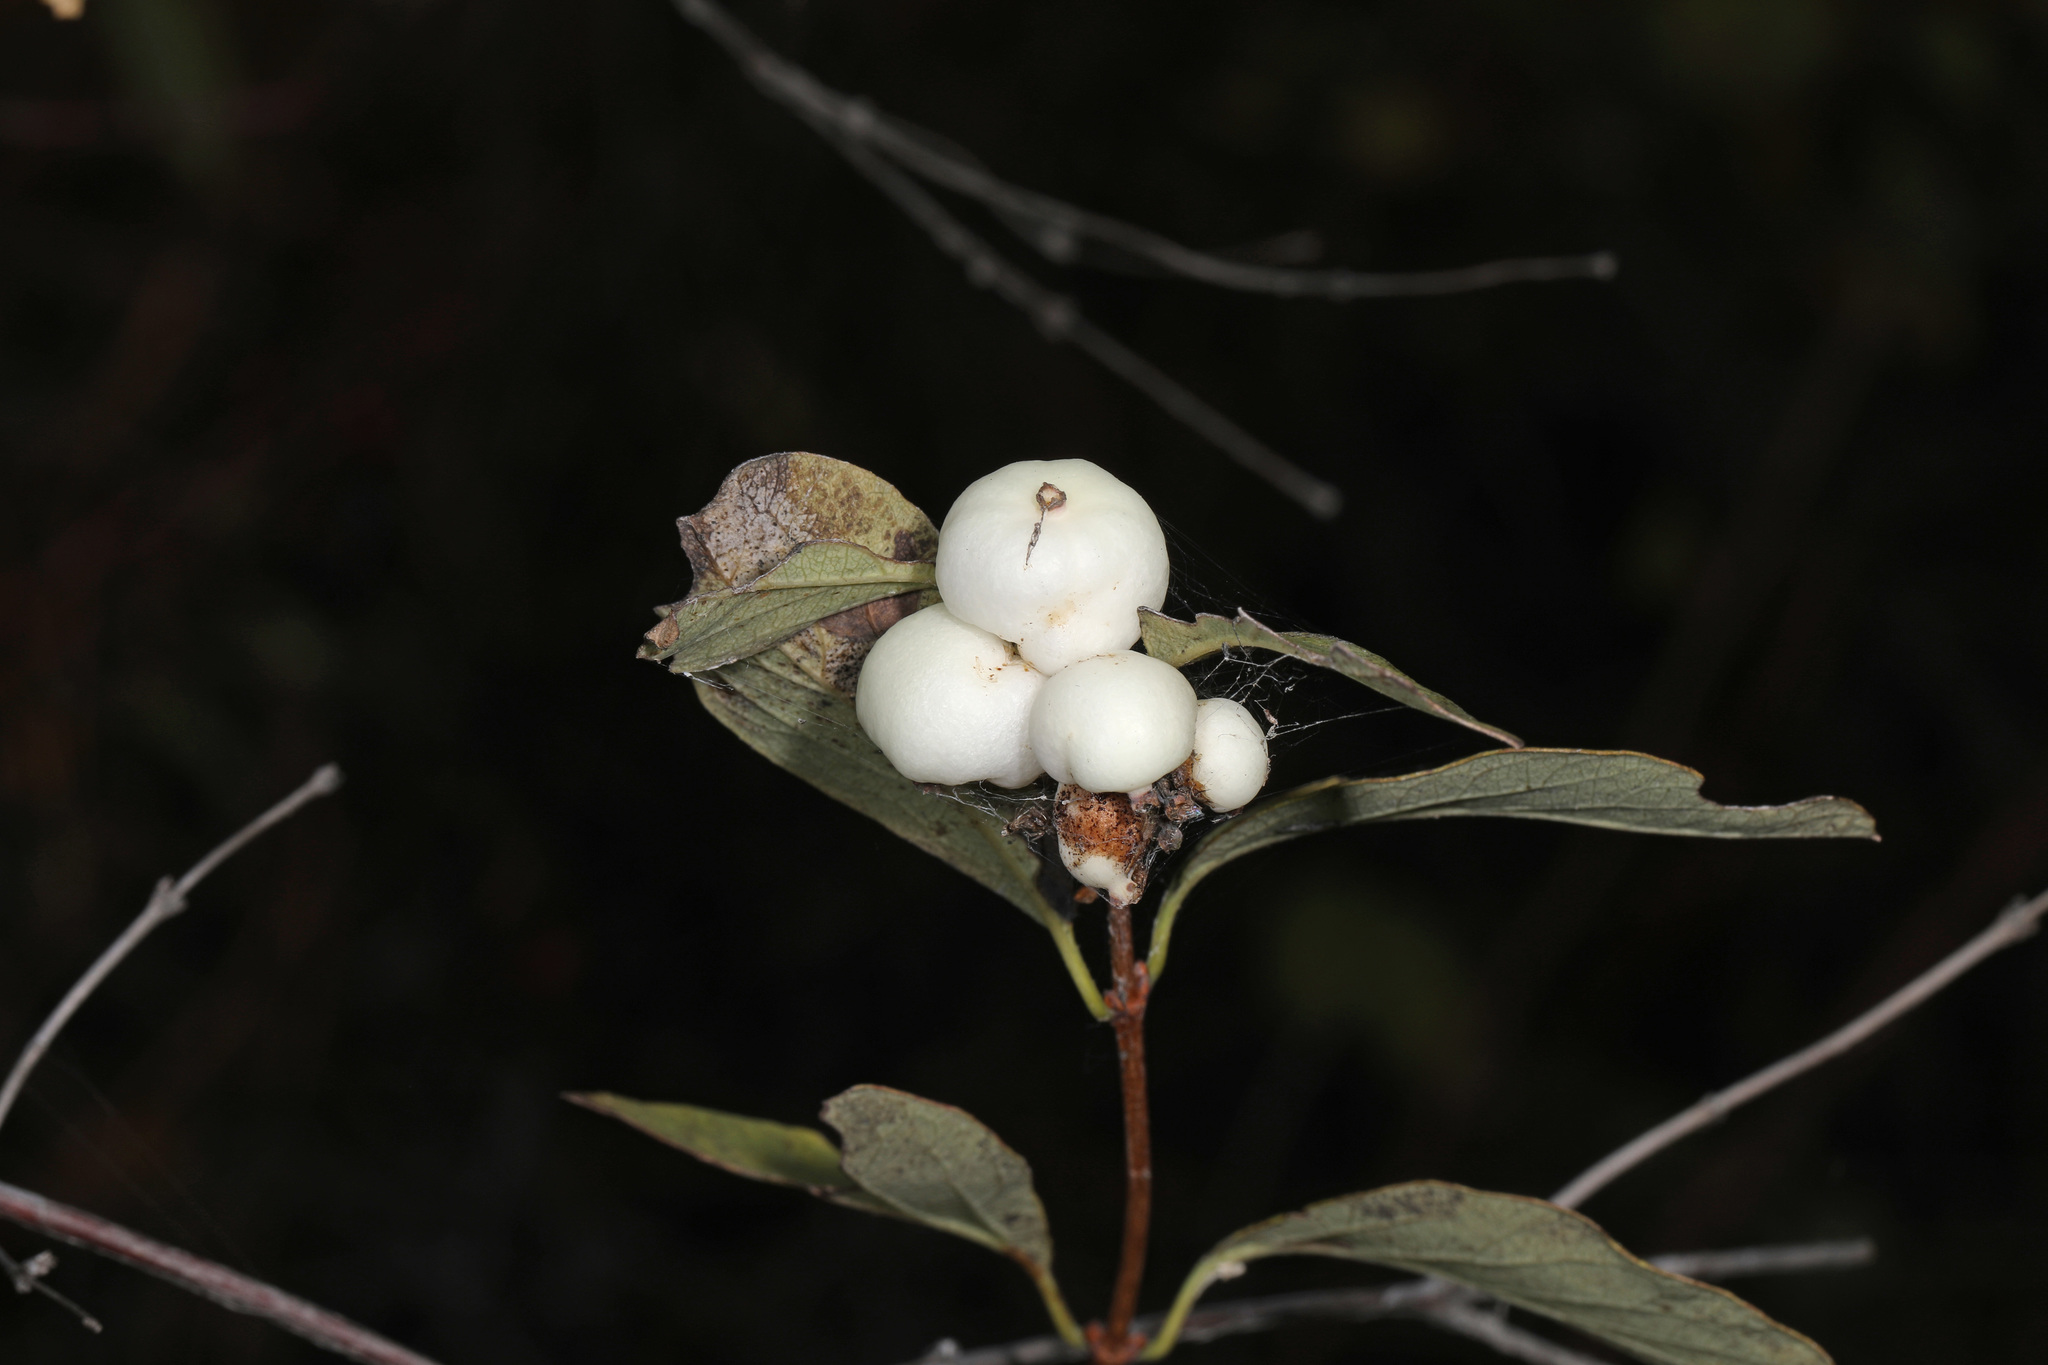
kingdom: Plantae
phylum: Tracheophyta
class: Magnoliopsida
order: Dipsacales
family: Caprifoliaceae
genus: Symphoricarpos
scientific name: Symphoricarpos albus
